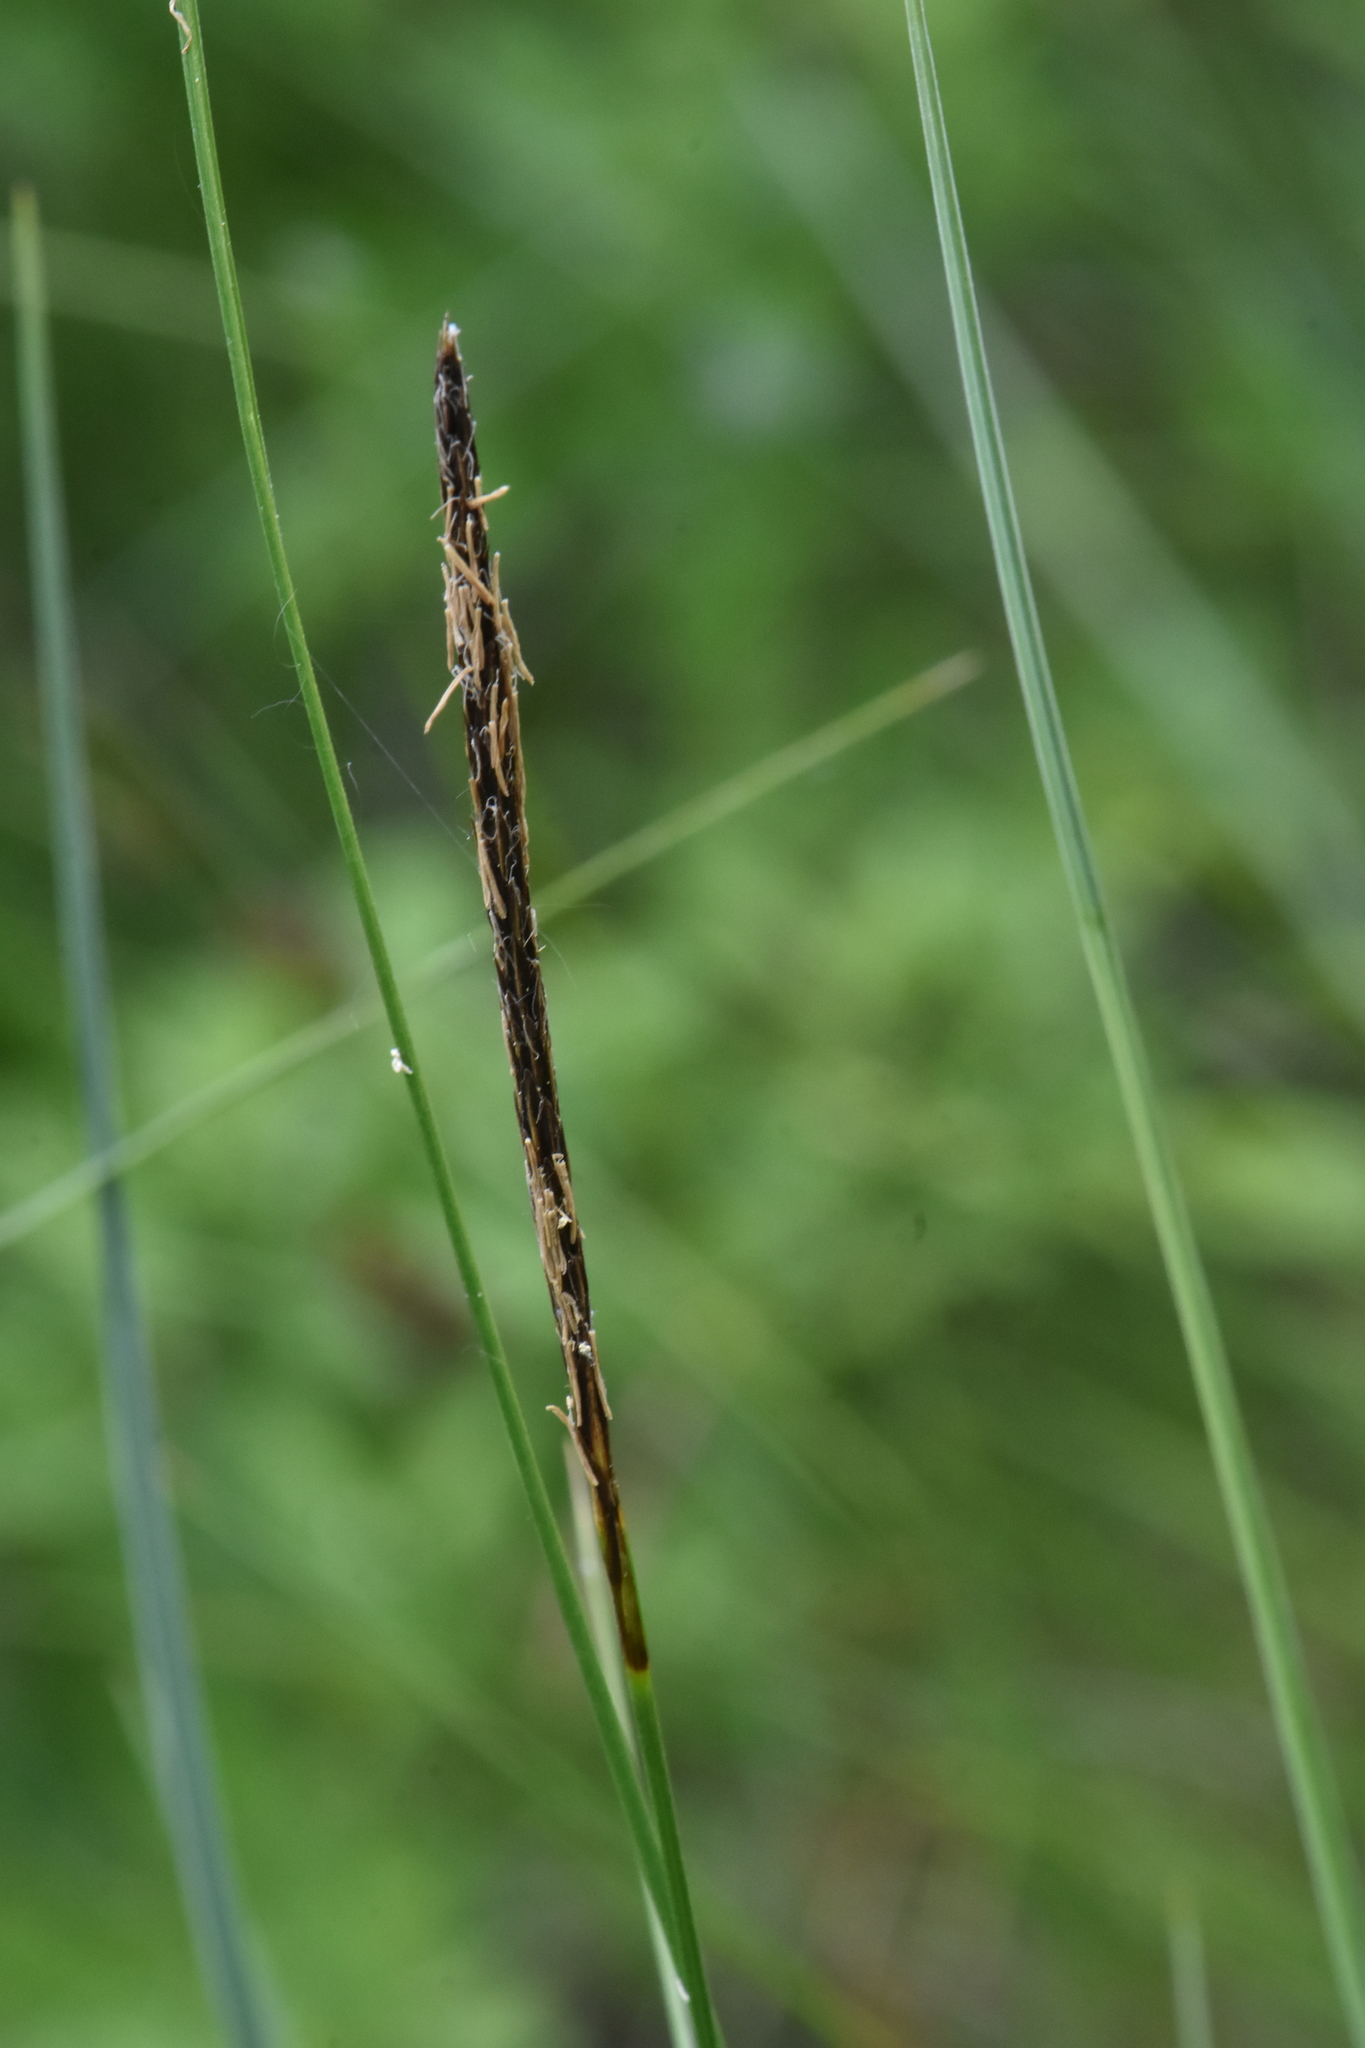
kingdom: Plantae
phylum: Tracheophyta
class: Liliopsida
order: Poales
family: Cyperaceae
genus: Carex
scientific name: Carex lasiocarpa
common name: Slender sedge
